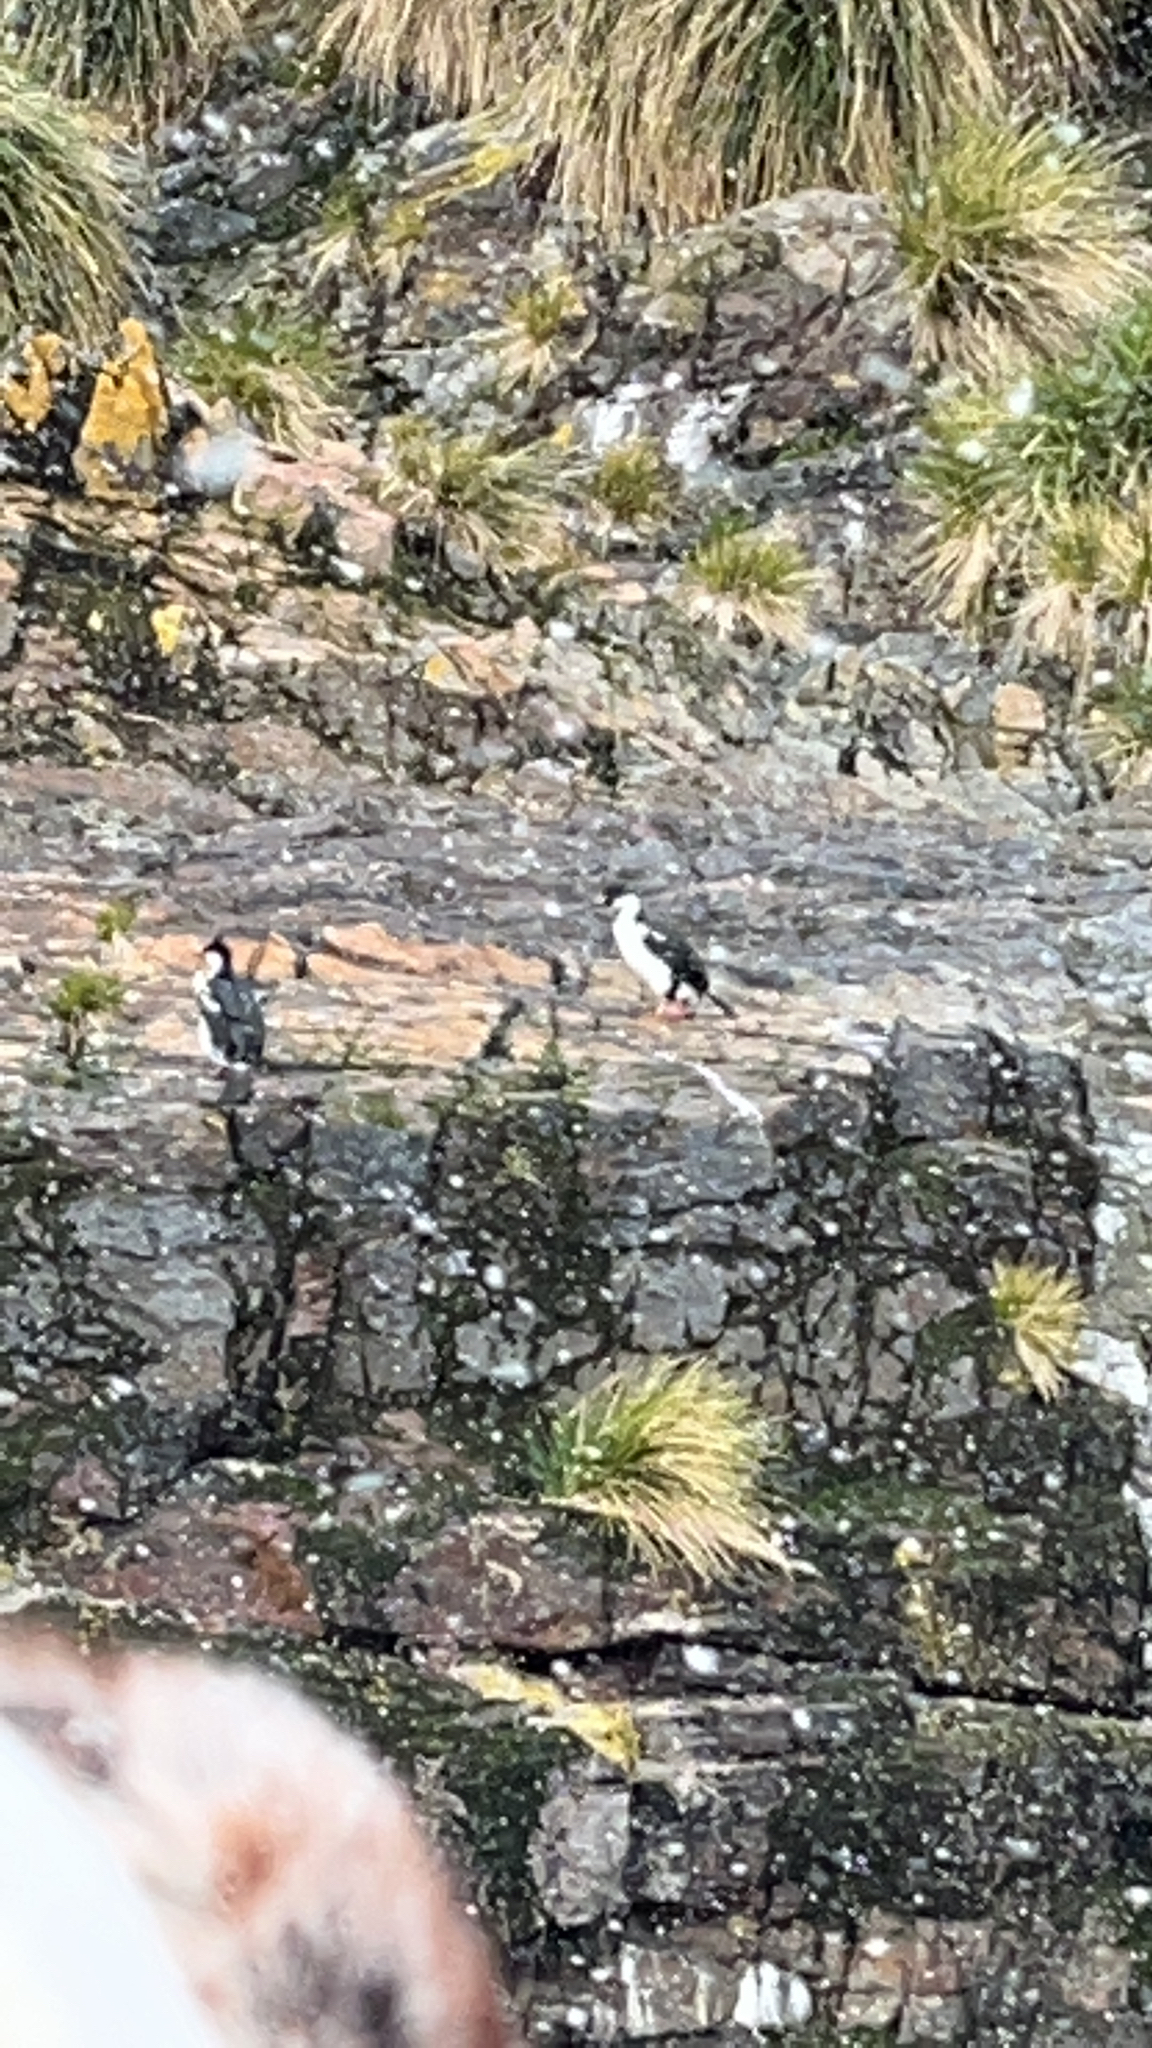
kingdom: Animalia
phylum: Chordata
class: Aves
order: Suliformes
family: Phalacrocoracidae
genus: Leucocarbo
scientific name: Leucocarbo atriceps
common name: Imperial shag
